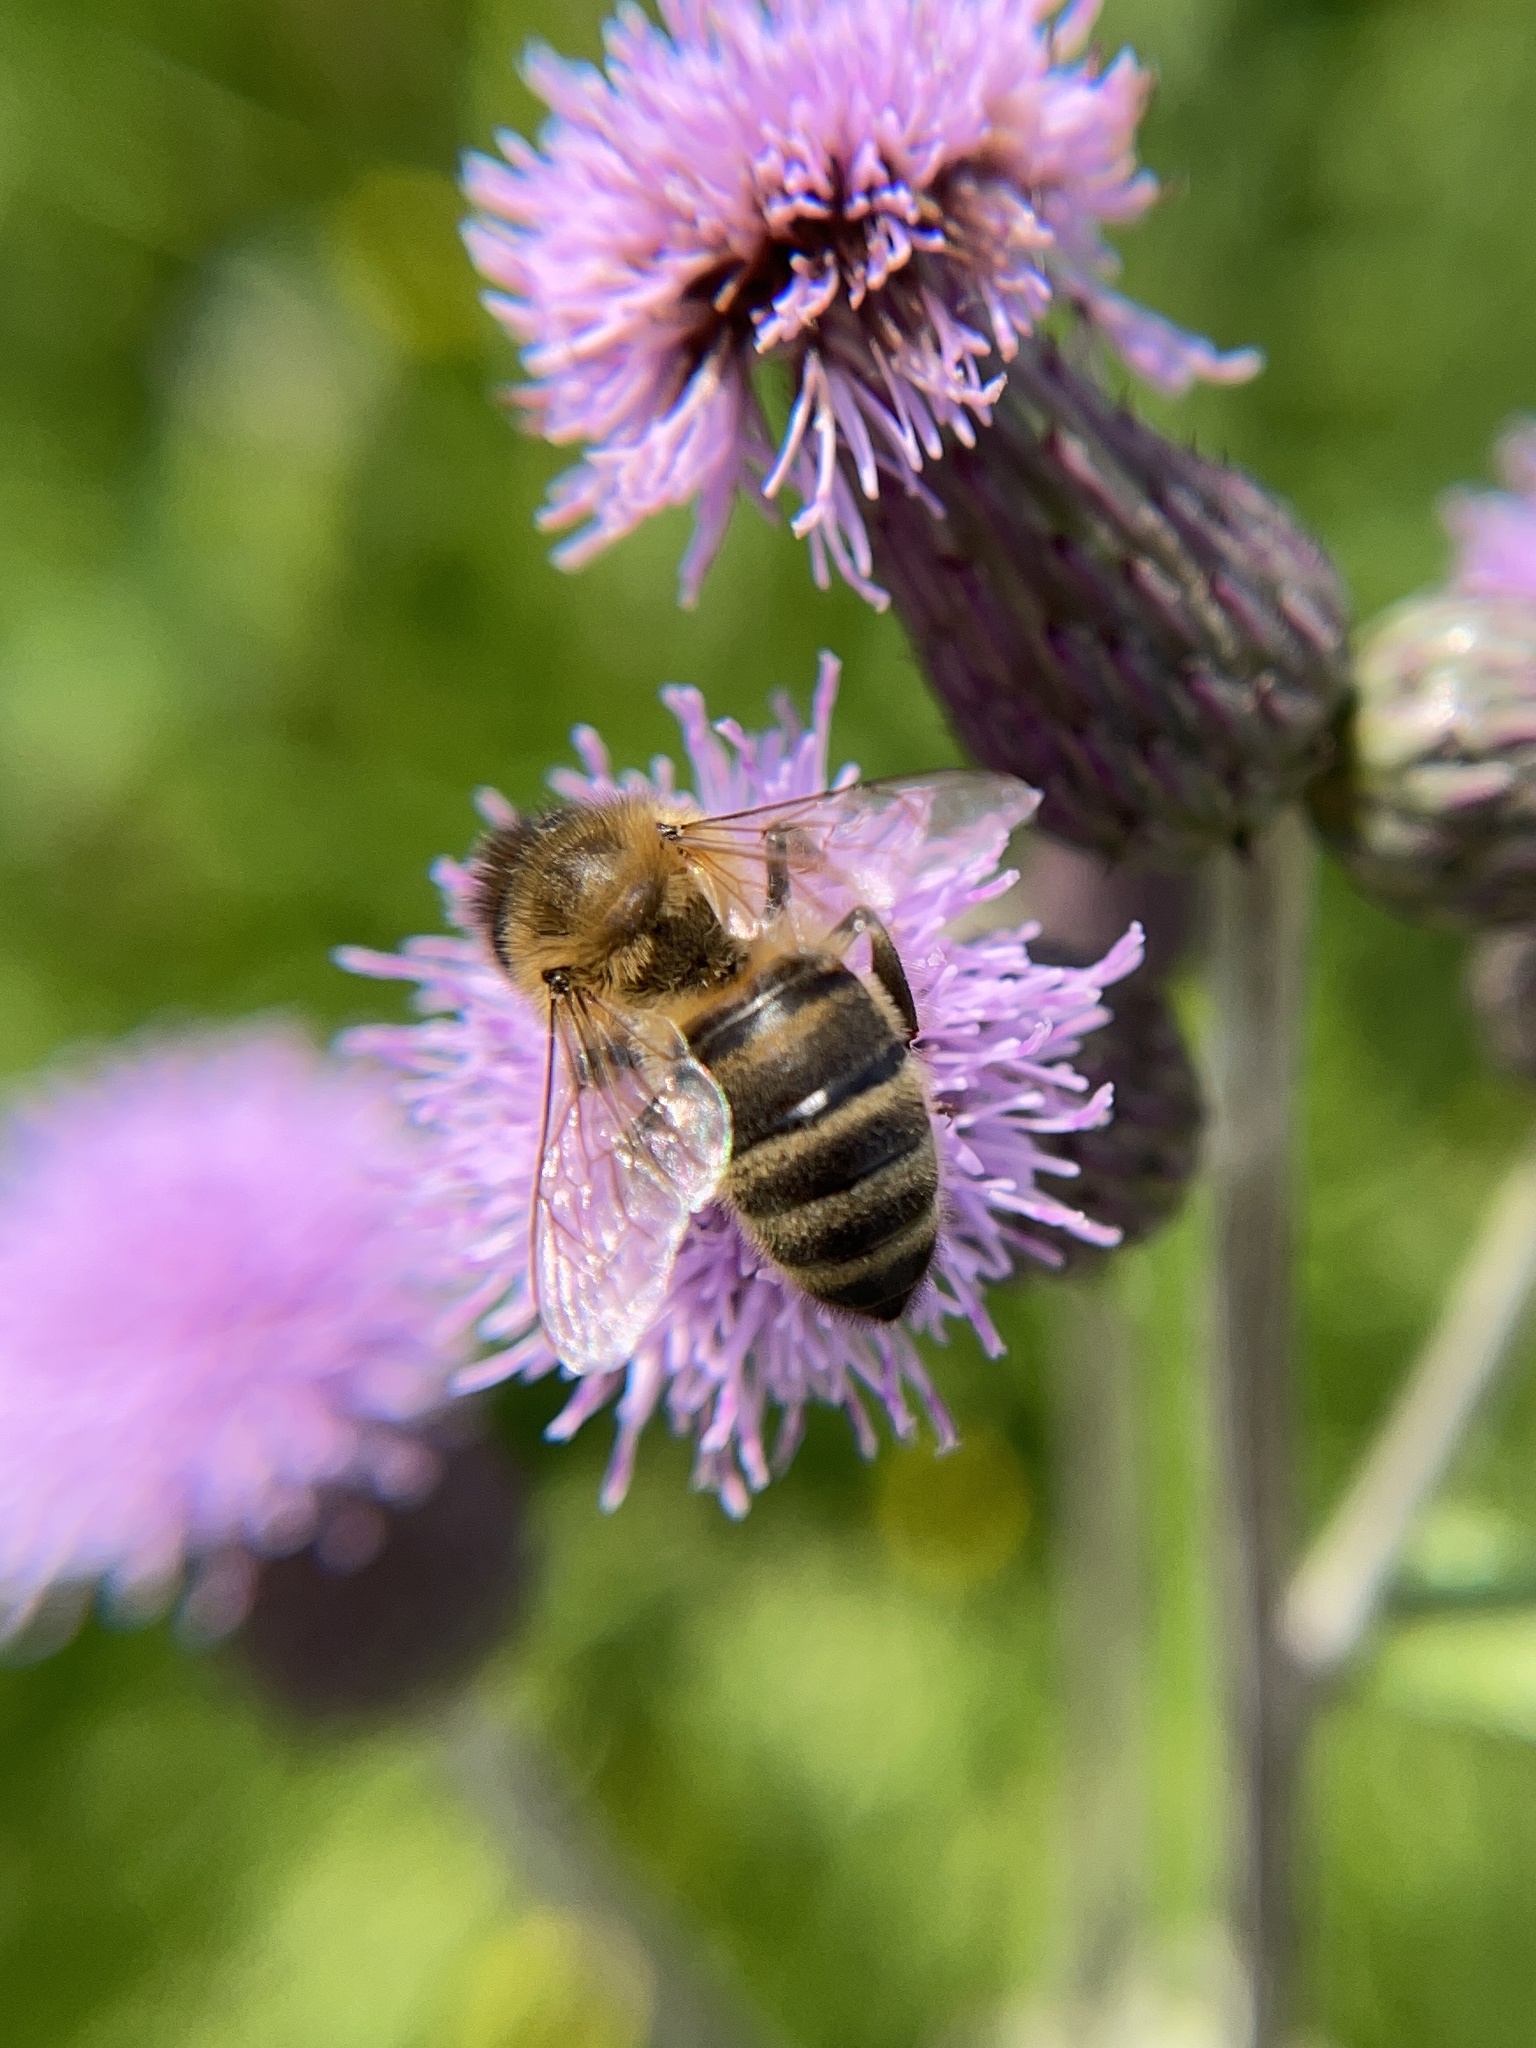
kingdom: Animalia
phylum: Arthropoda
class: Insecta
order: Hymenoptera
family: Apidae
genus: Apis
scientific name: Apis mellifera
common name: Honey bee
